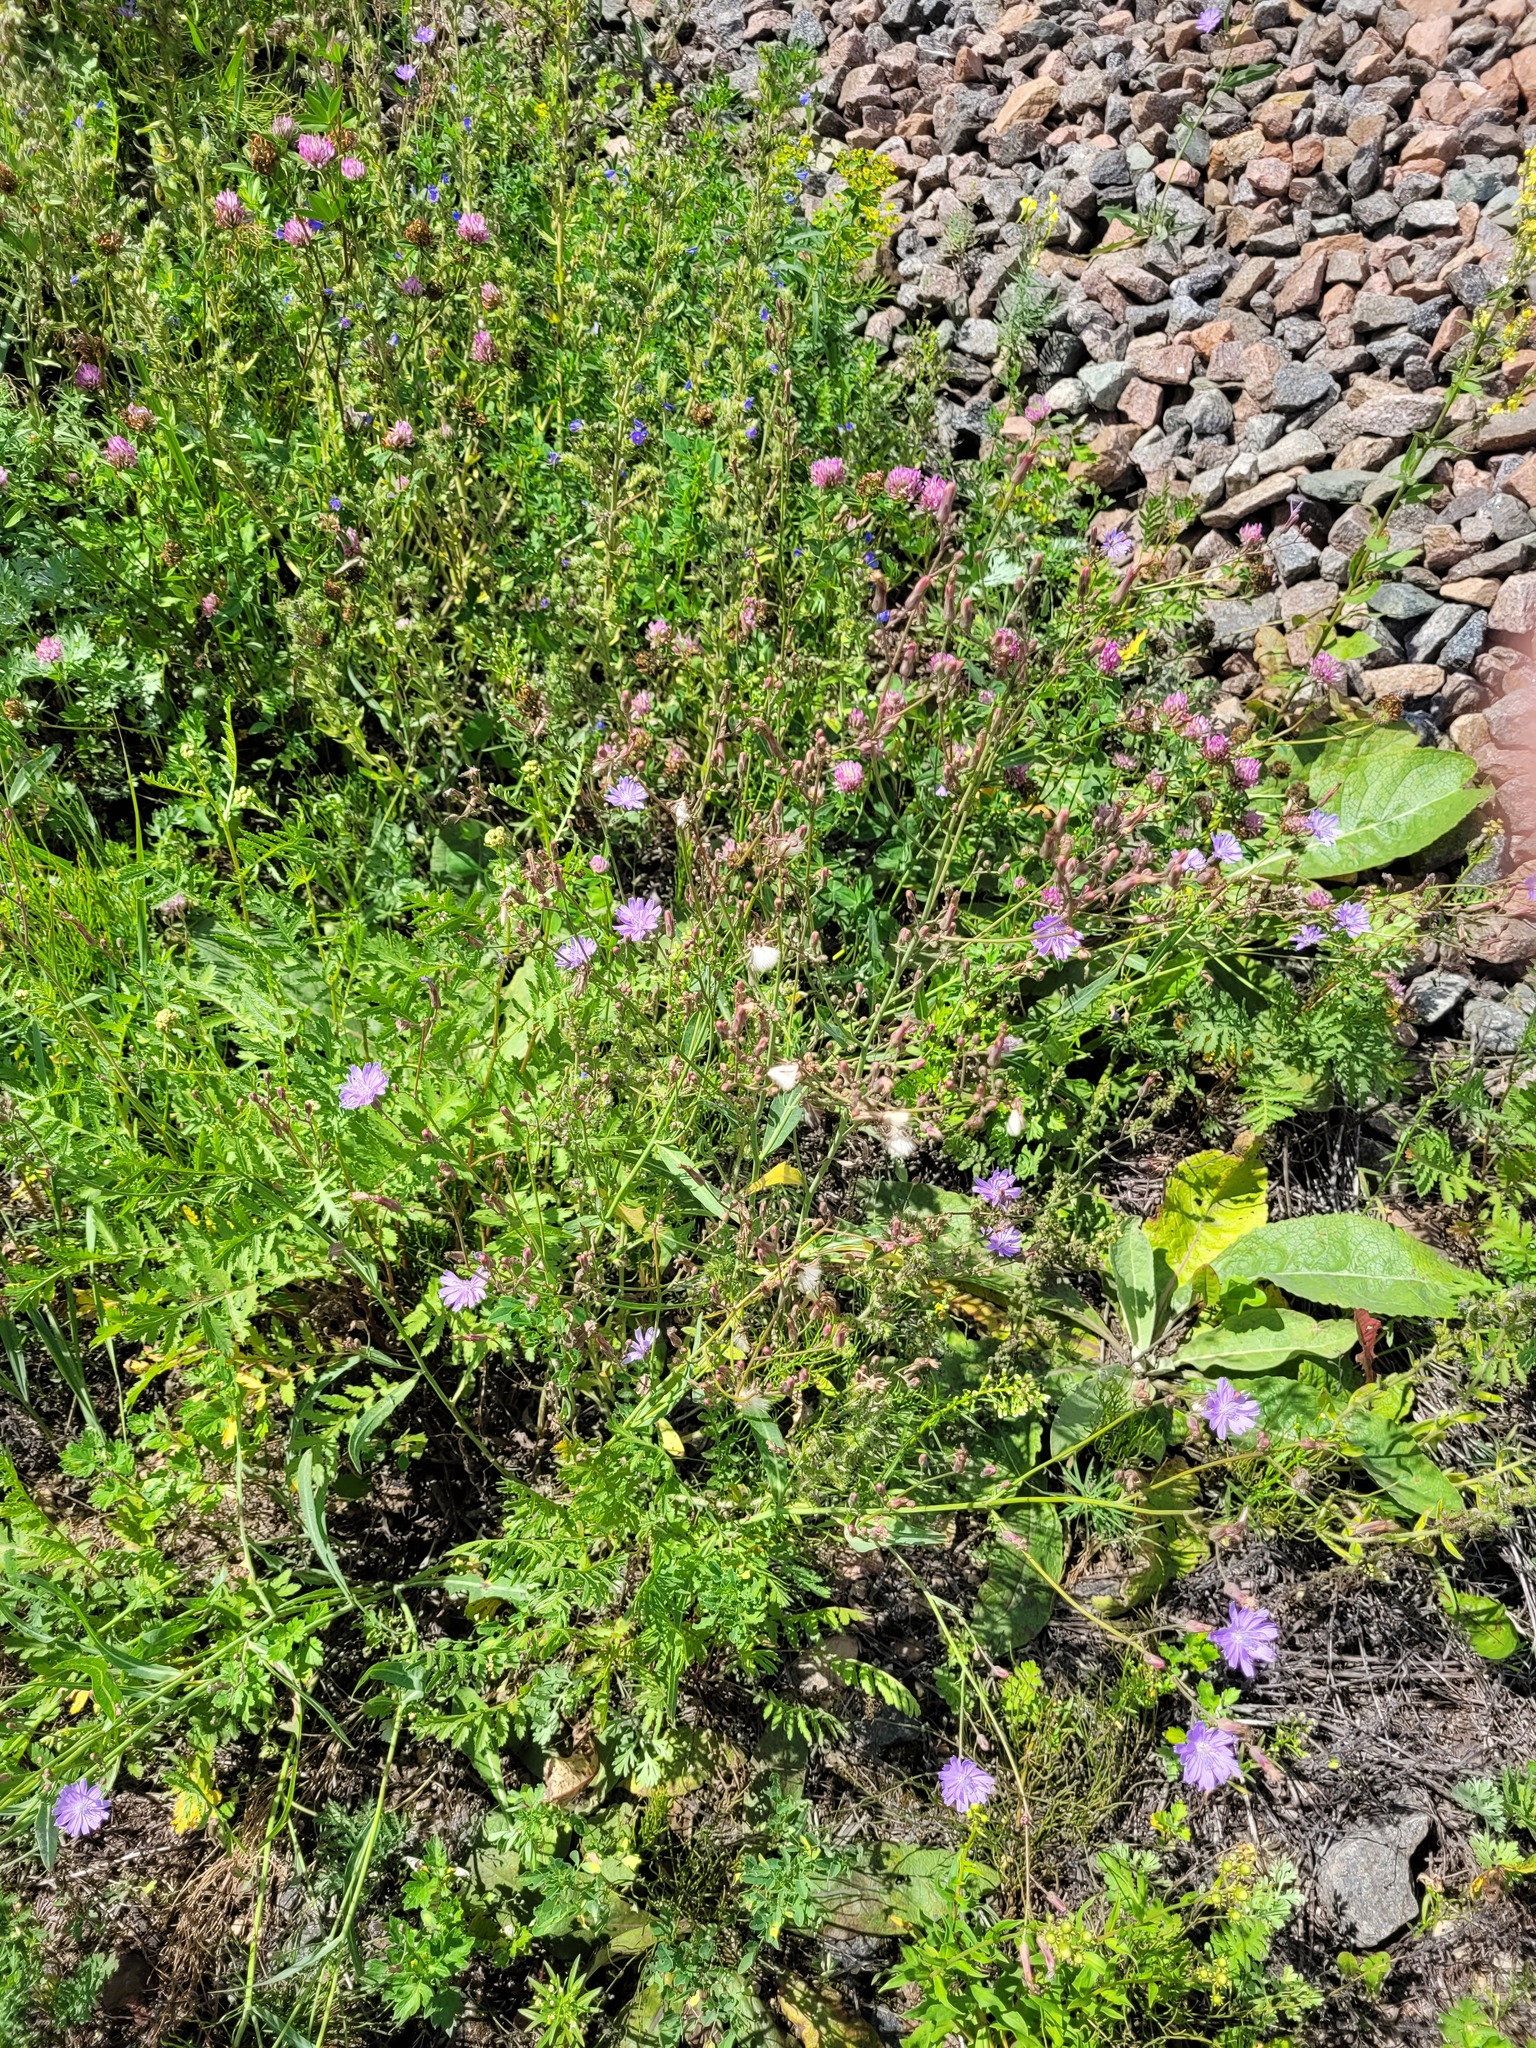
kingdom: Plantae
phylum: Tracheophyta
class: Magnoliopsida
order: Asterales
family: Asteraceae
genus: Lactuca
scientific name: Lactuca tatarica
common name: Blue lettuce
